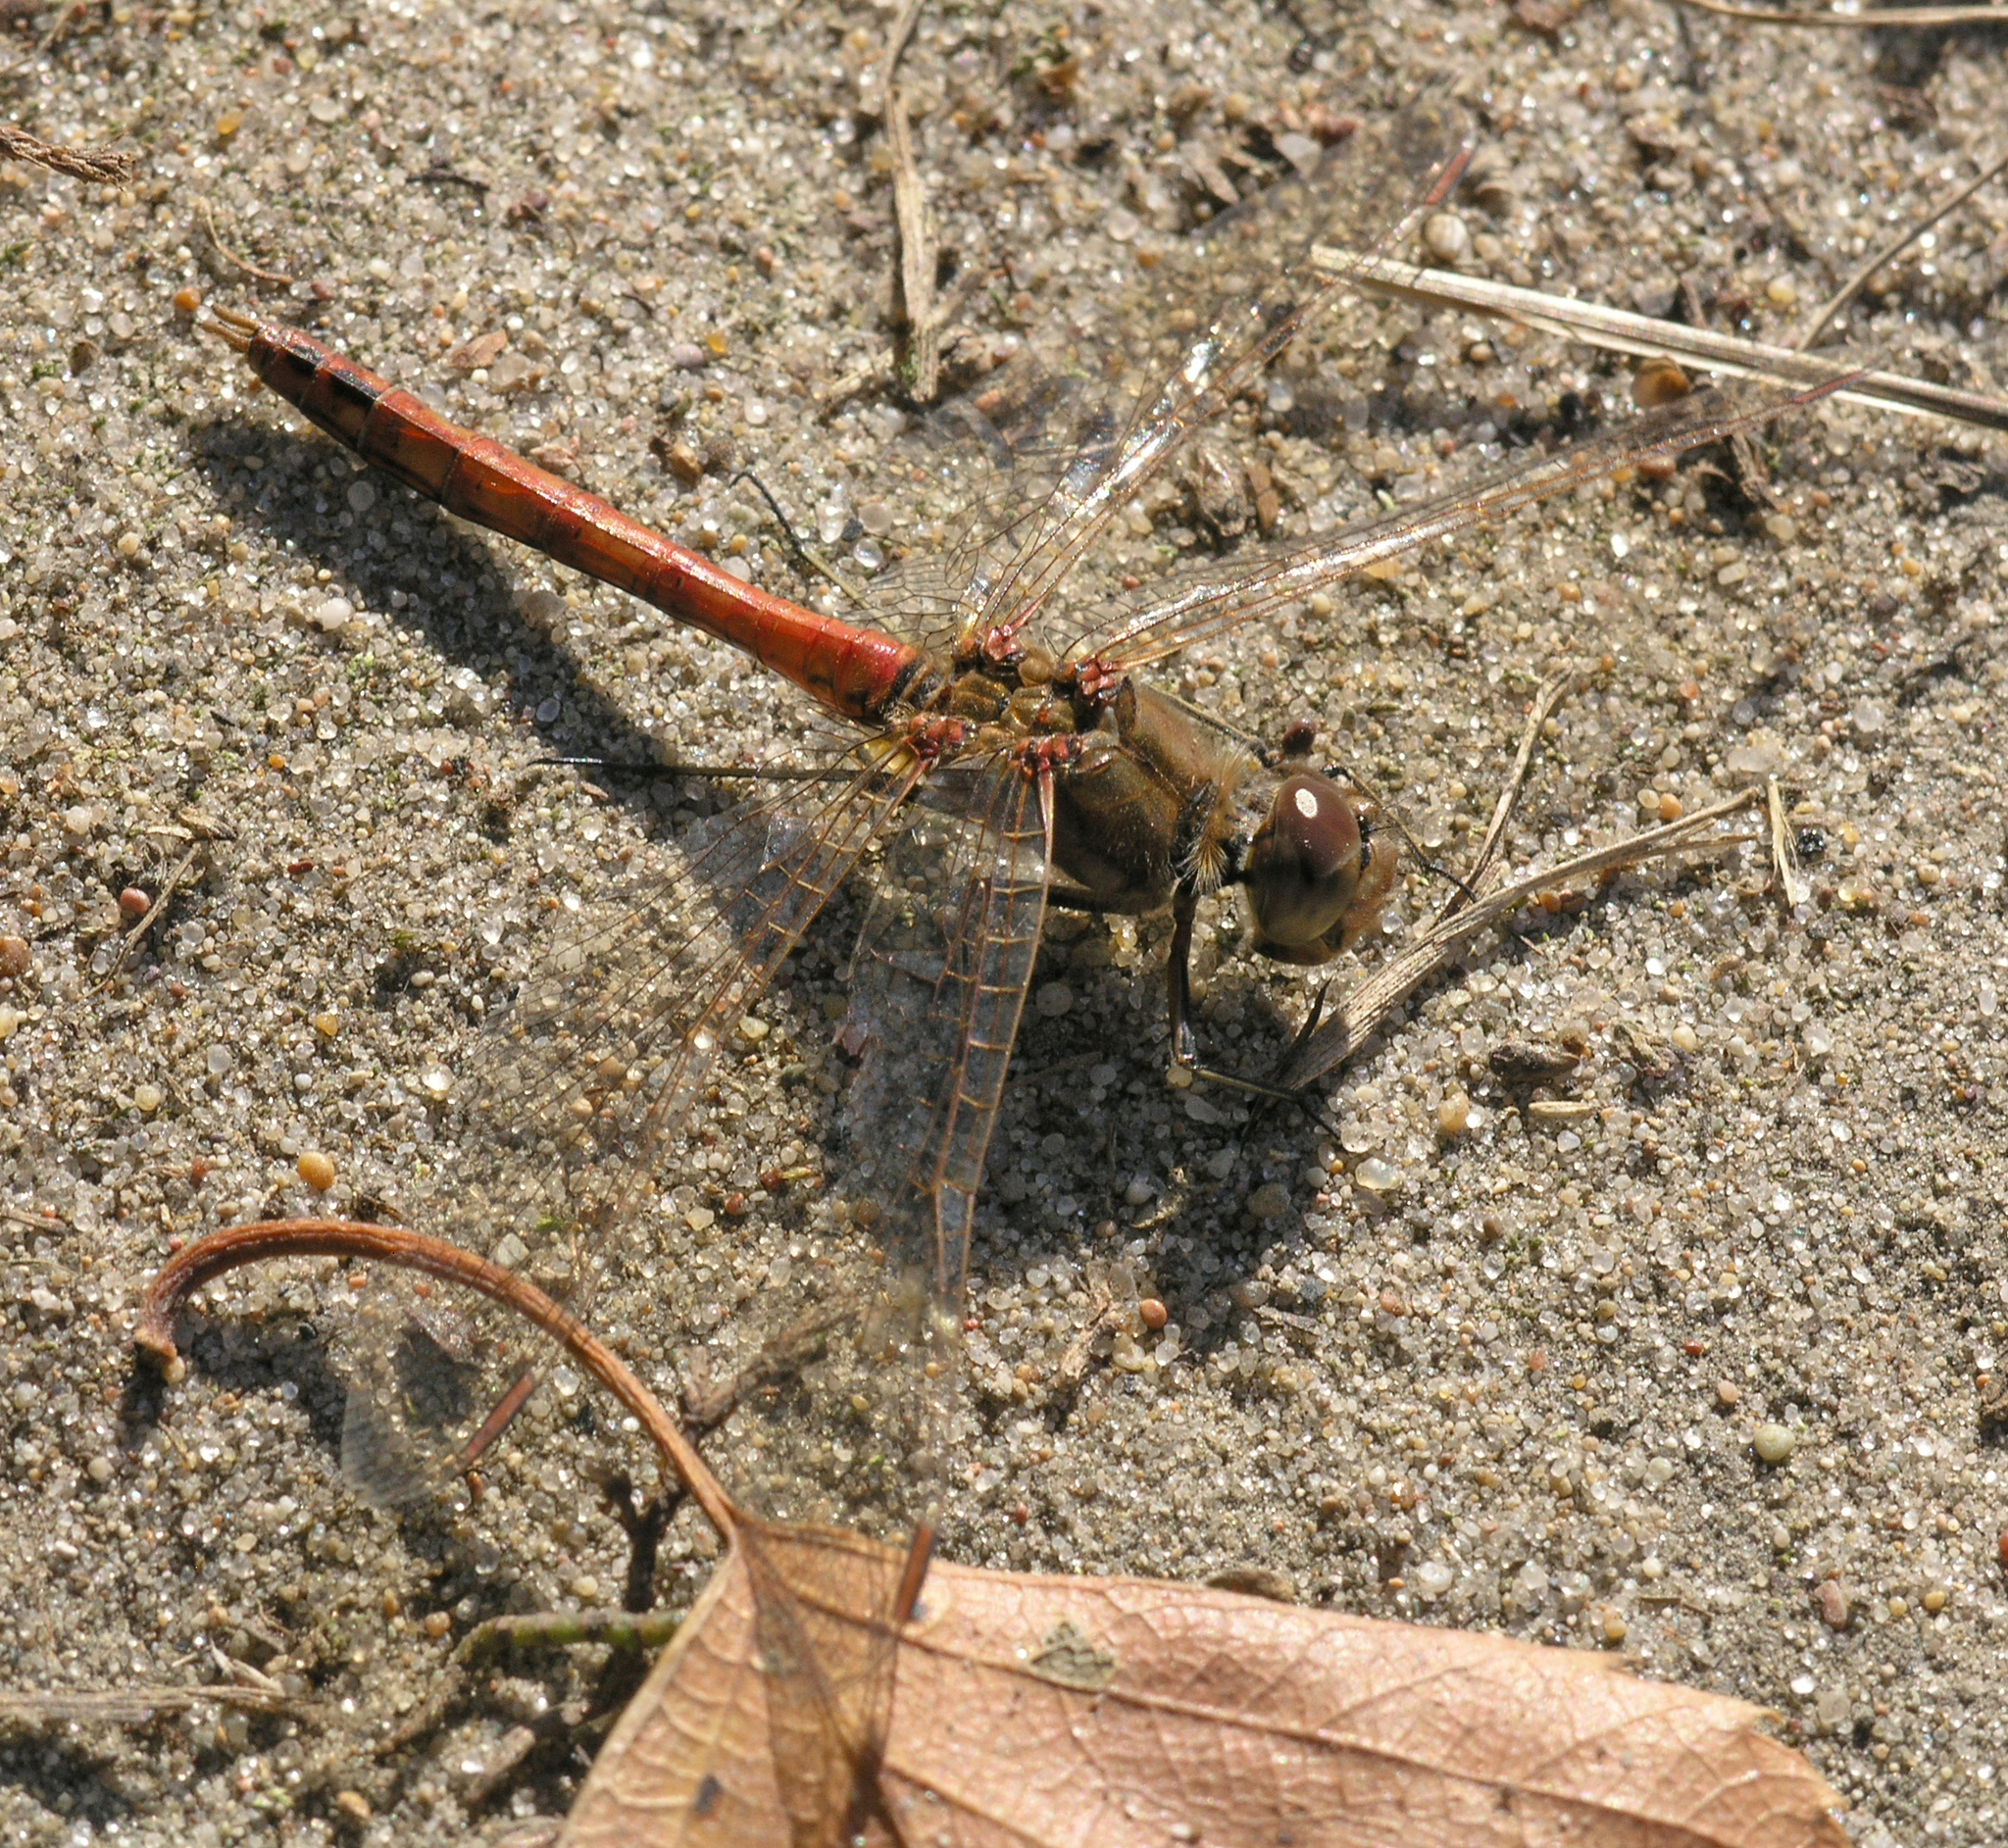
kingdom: Animalia
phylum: Arthropoda
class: Insecta
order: Odonata
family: Libellulidae
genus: Sympetrum
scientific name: Sympetrum vulgatum
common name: Vagrant darter
